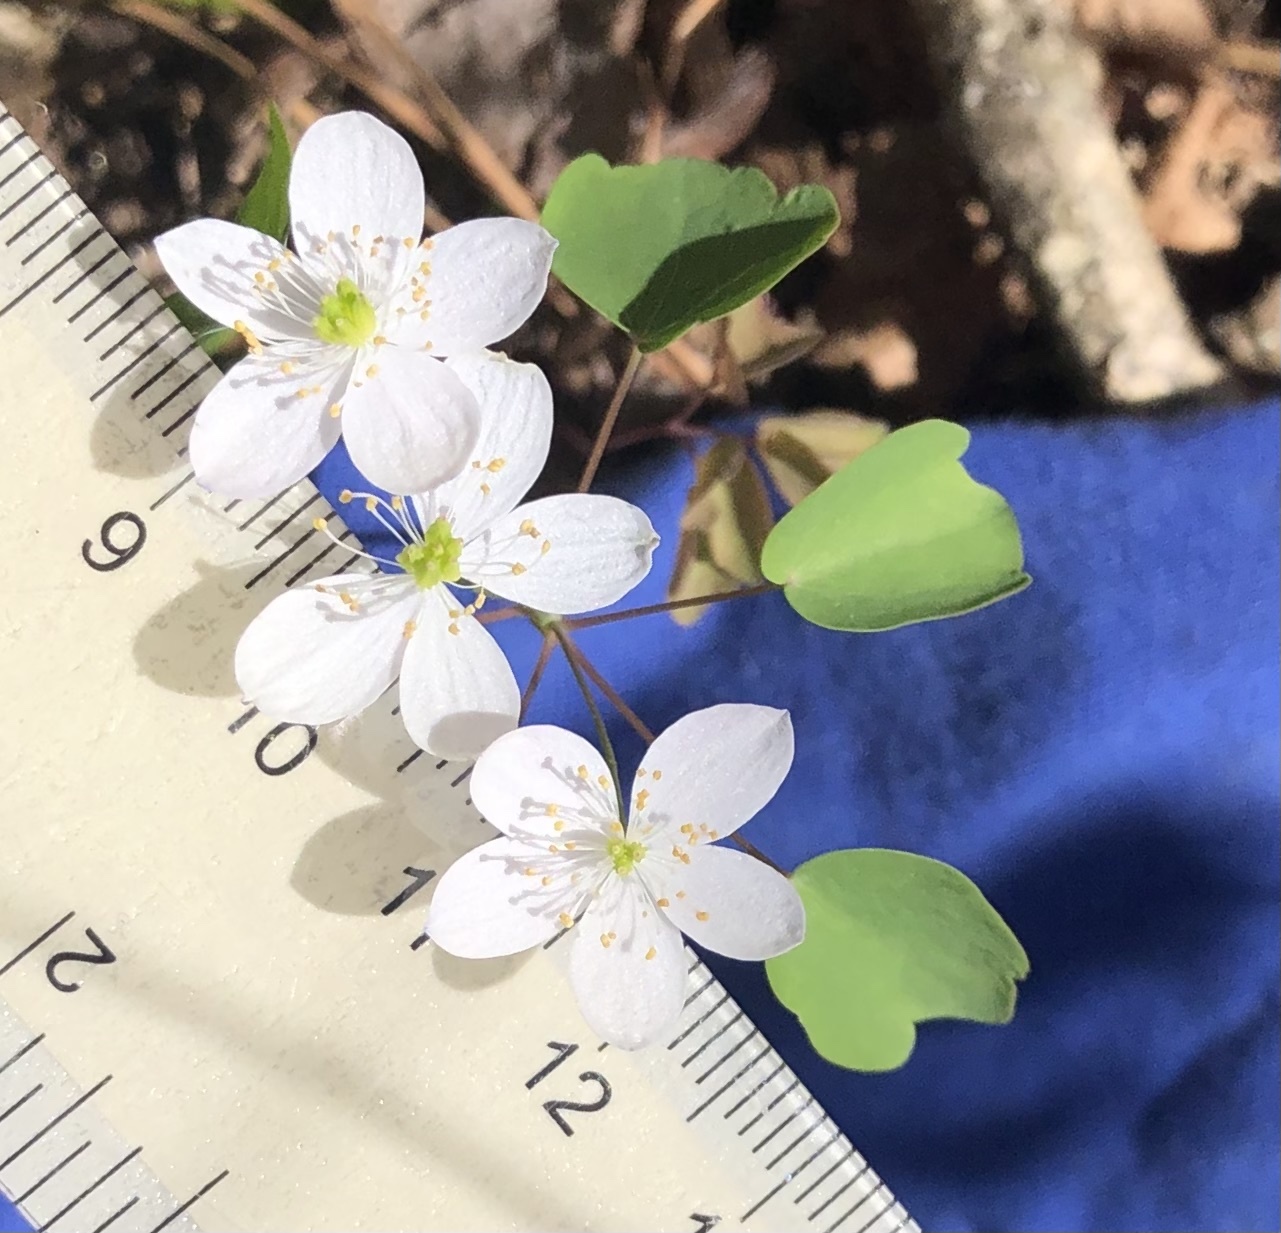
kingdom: Plantae
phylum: Tracheophyta
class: Magnoliopsida
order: Ranunculales
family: Ranunculaceae
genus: Thalictrum
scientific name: Thalictrum thalictroides
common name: Rue-anemone
